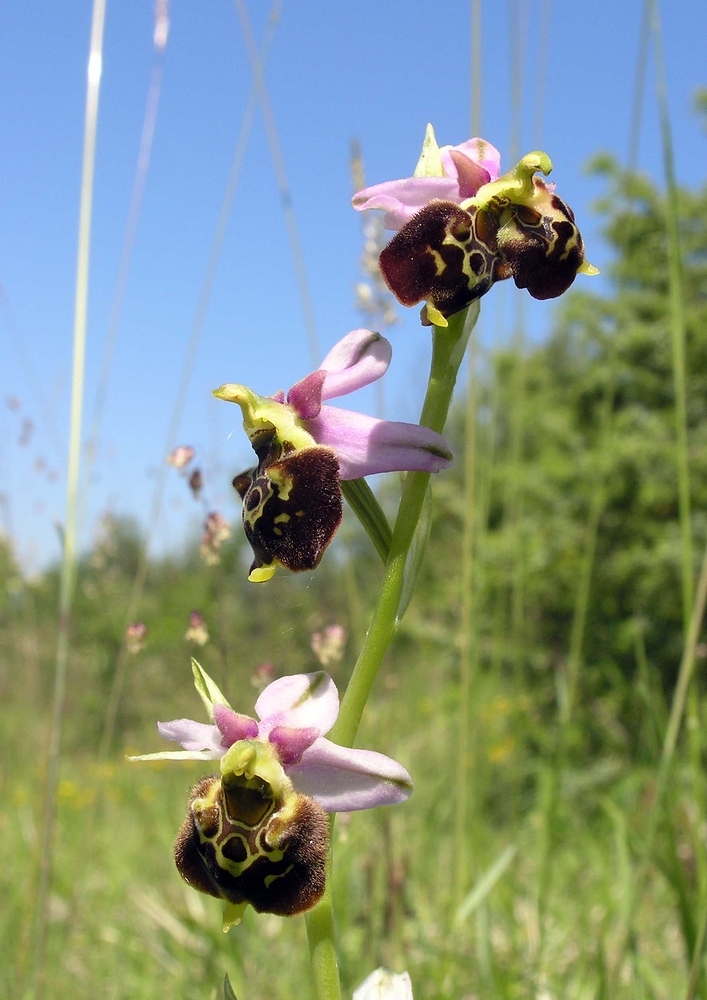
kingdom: Plantae
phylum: Tracheophyta
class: Liliopsida
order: Asparagales
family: Orchidaceae
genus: Ophrys
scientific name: Ophrys holosericea
